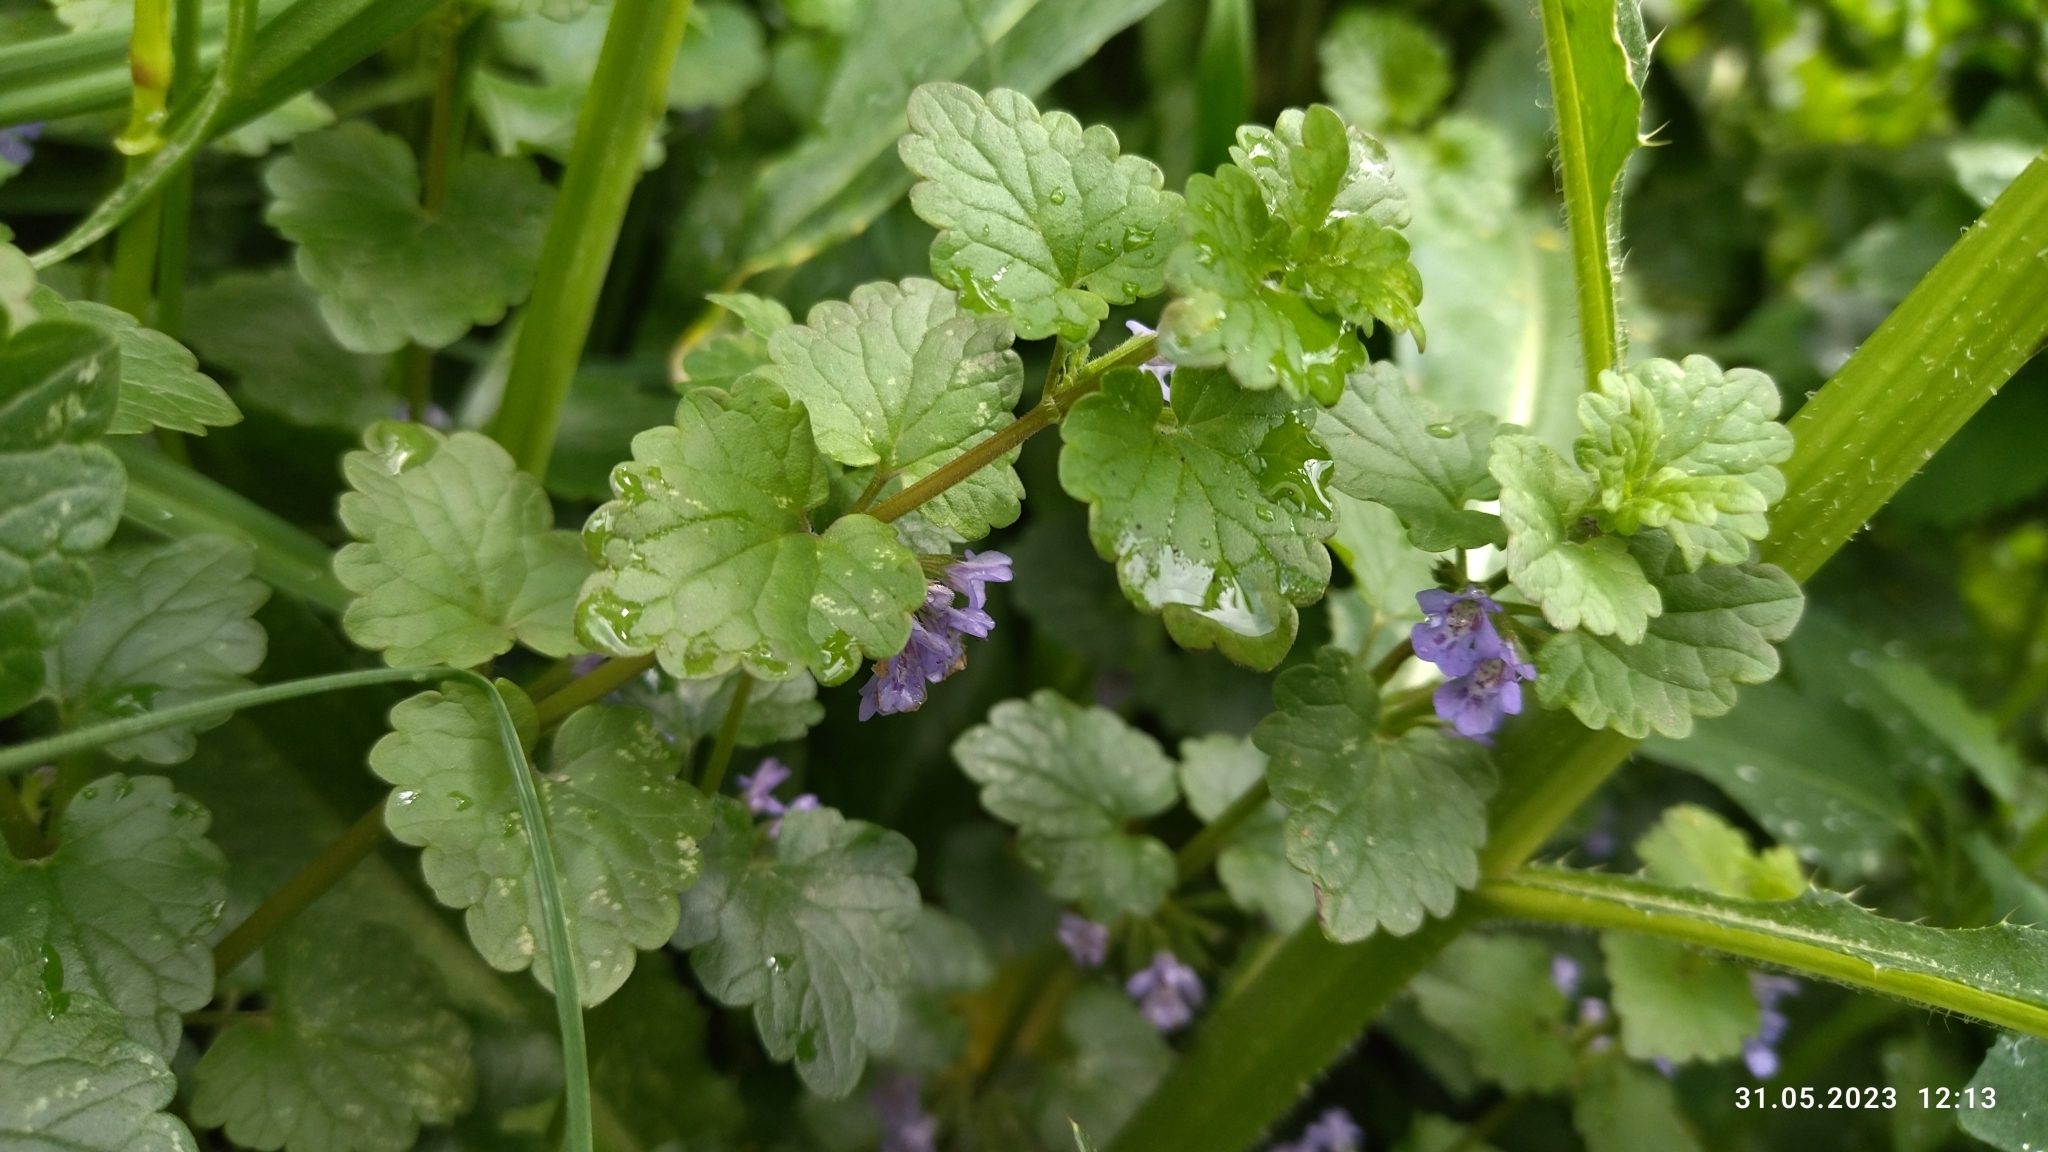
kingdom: Plantae
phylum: Tracheophyta
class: Magnoliopsida
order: Lamiales
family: Lamiaceae
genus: Glechoma
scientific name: Glechoma hederacea
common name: Ground ivy
